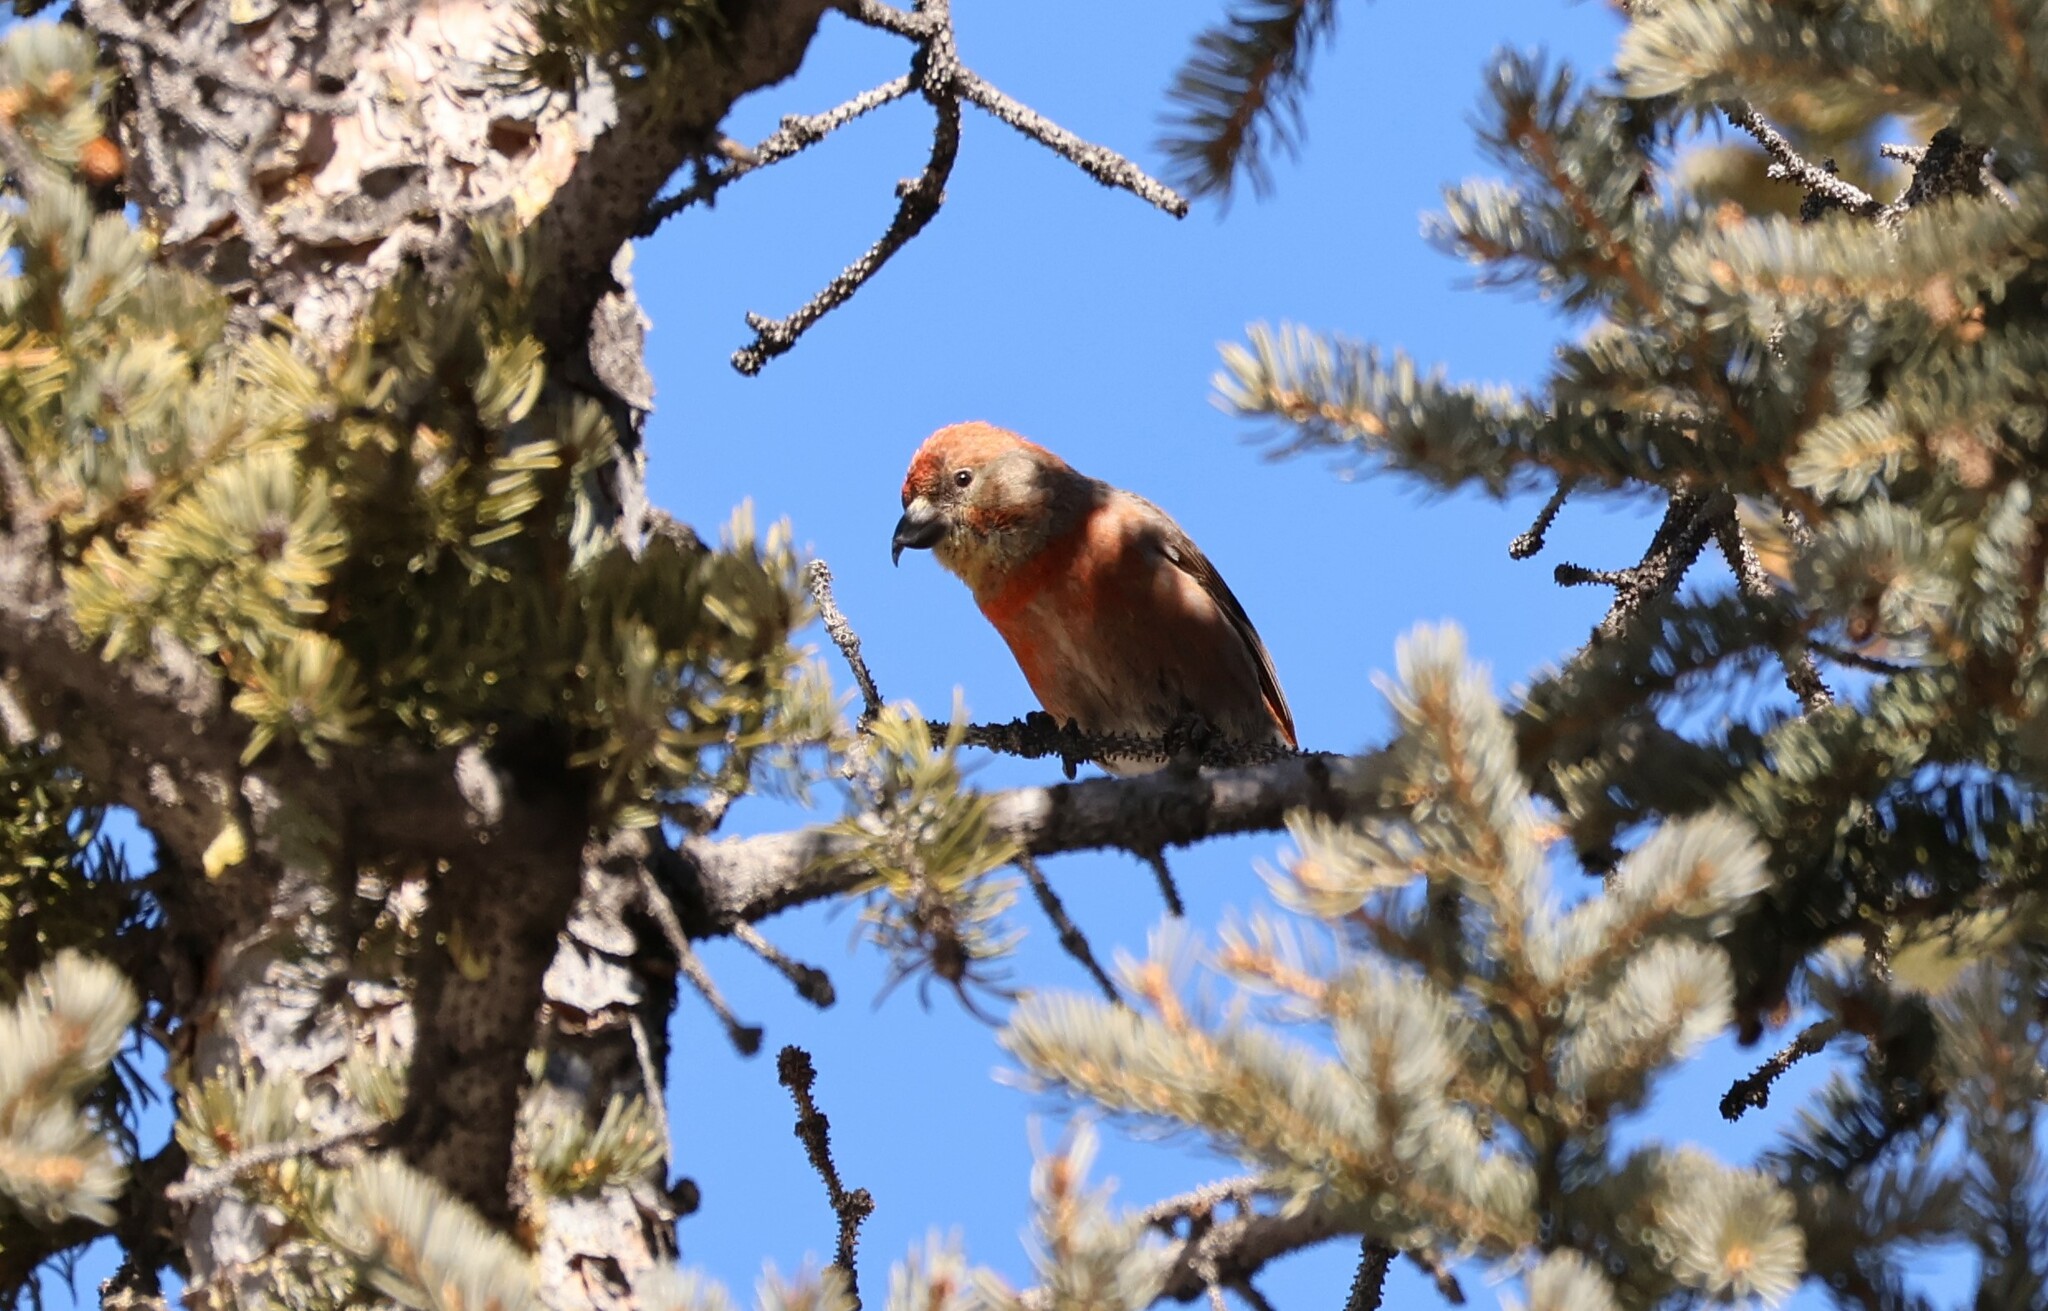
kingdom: Animalia
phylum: Chordata
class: Aves
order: Passeriformes
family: Fringillidae
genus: Loxia
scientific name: Loxia curvirostra
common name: Red crossbill
